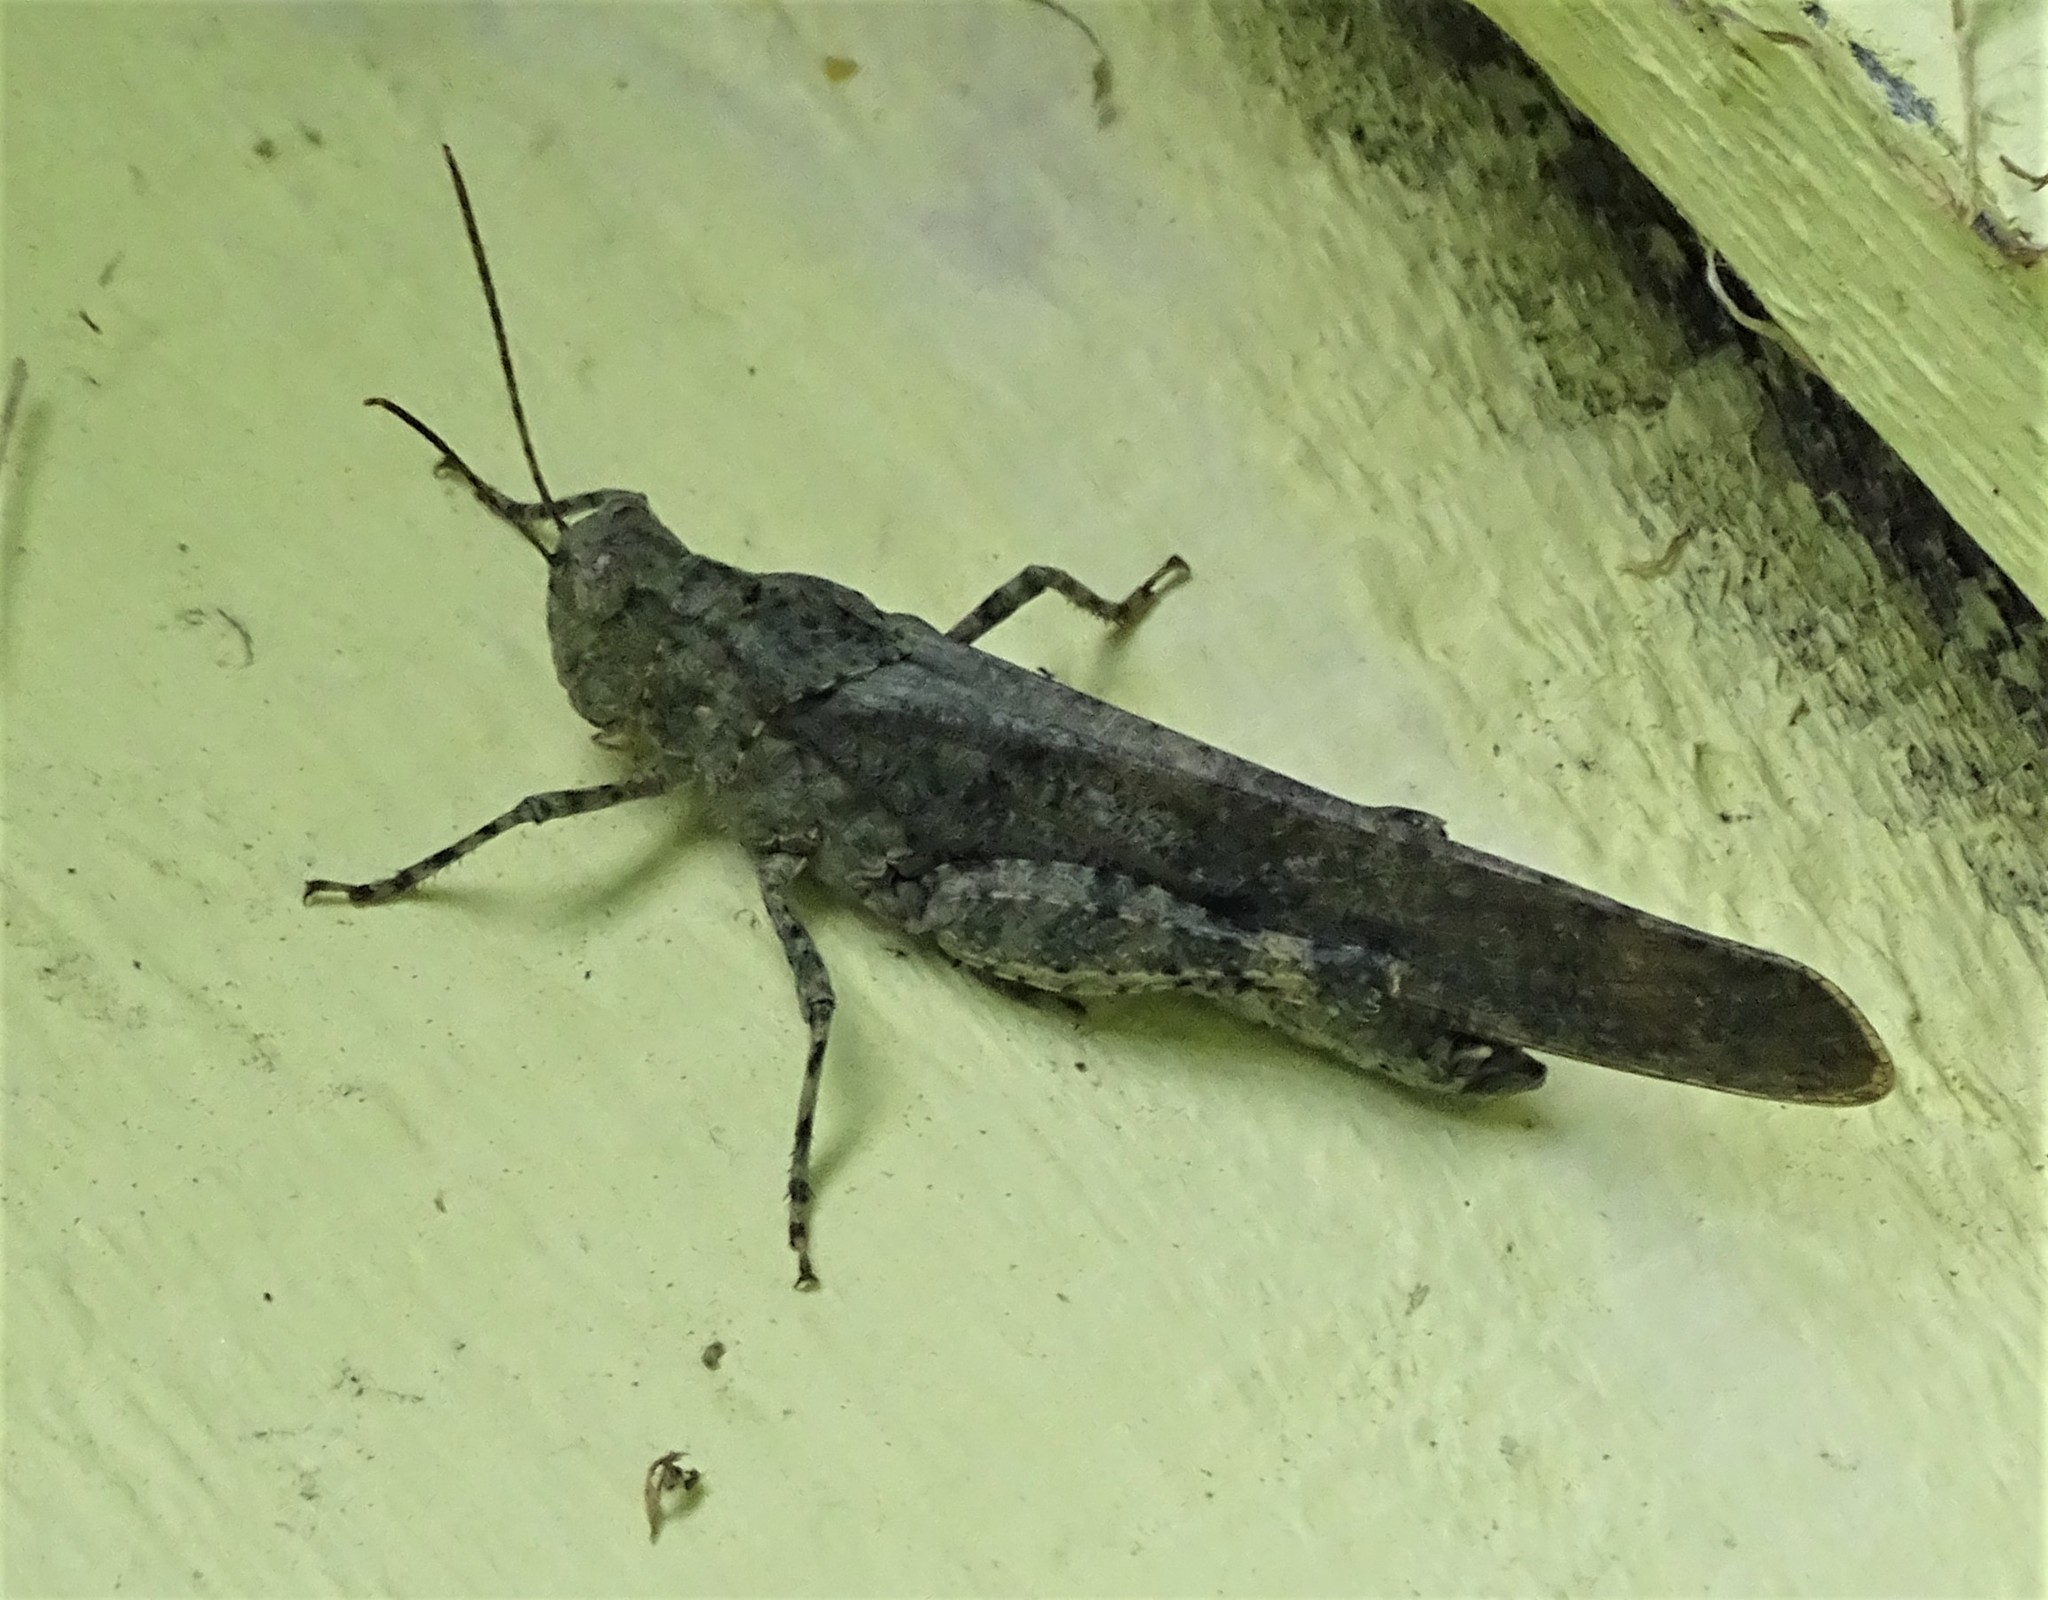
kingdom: Animalia
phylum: Arthropoda
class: Insecta
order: Orthoptera
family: Acrididae
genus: Dissosteira
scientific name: Dissosteira carolina
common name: Carolina grasshopper
